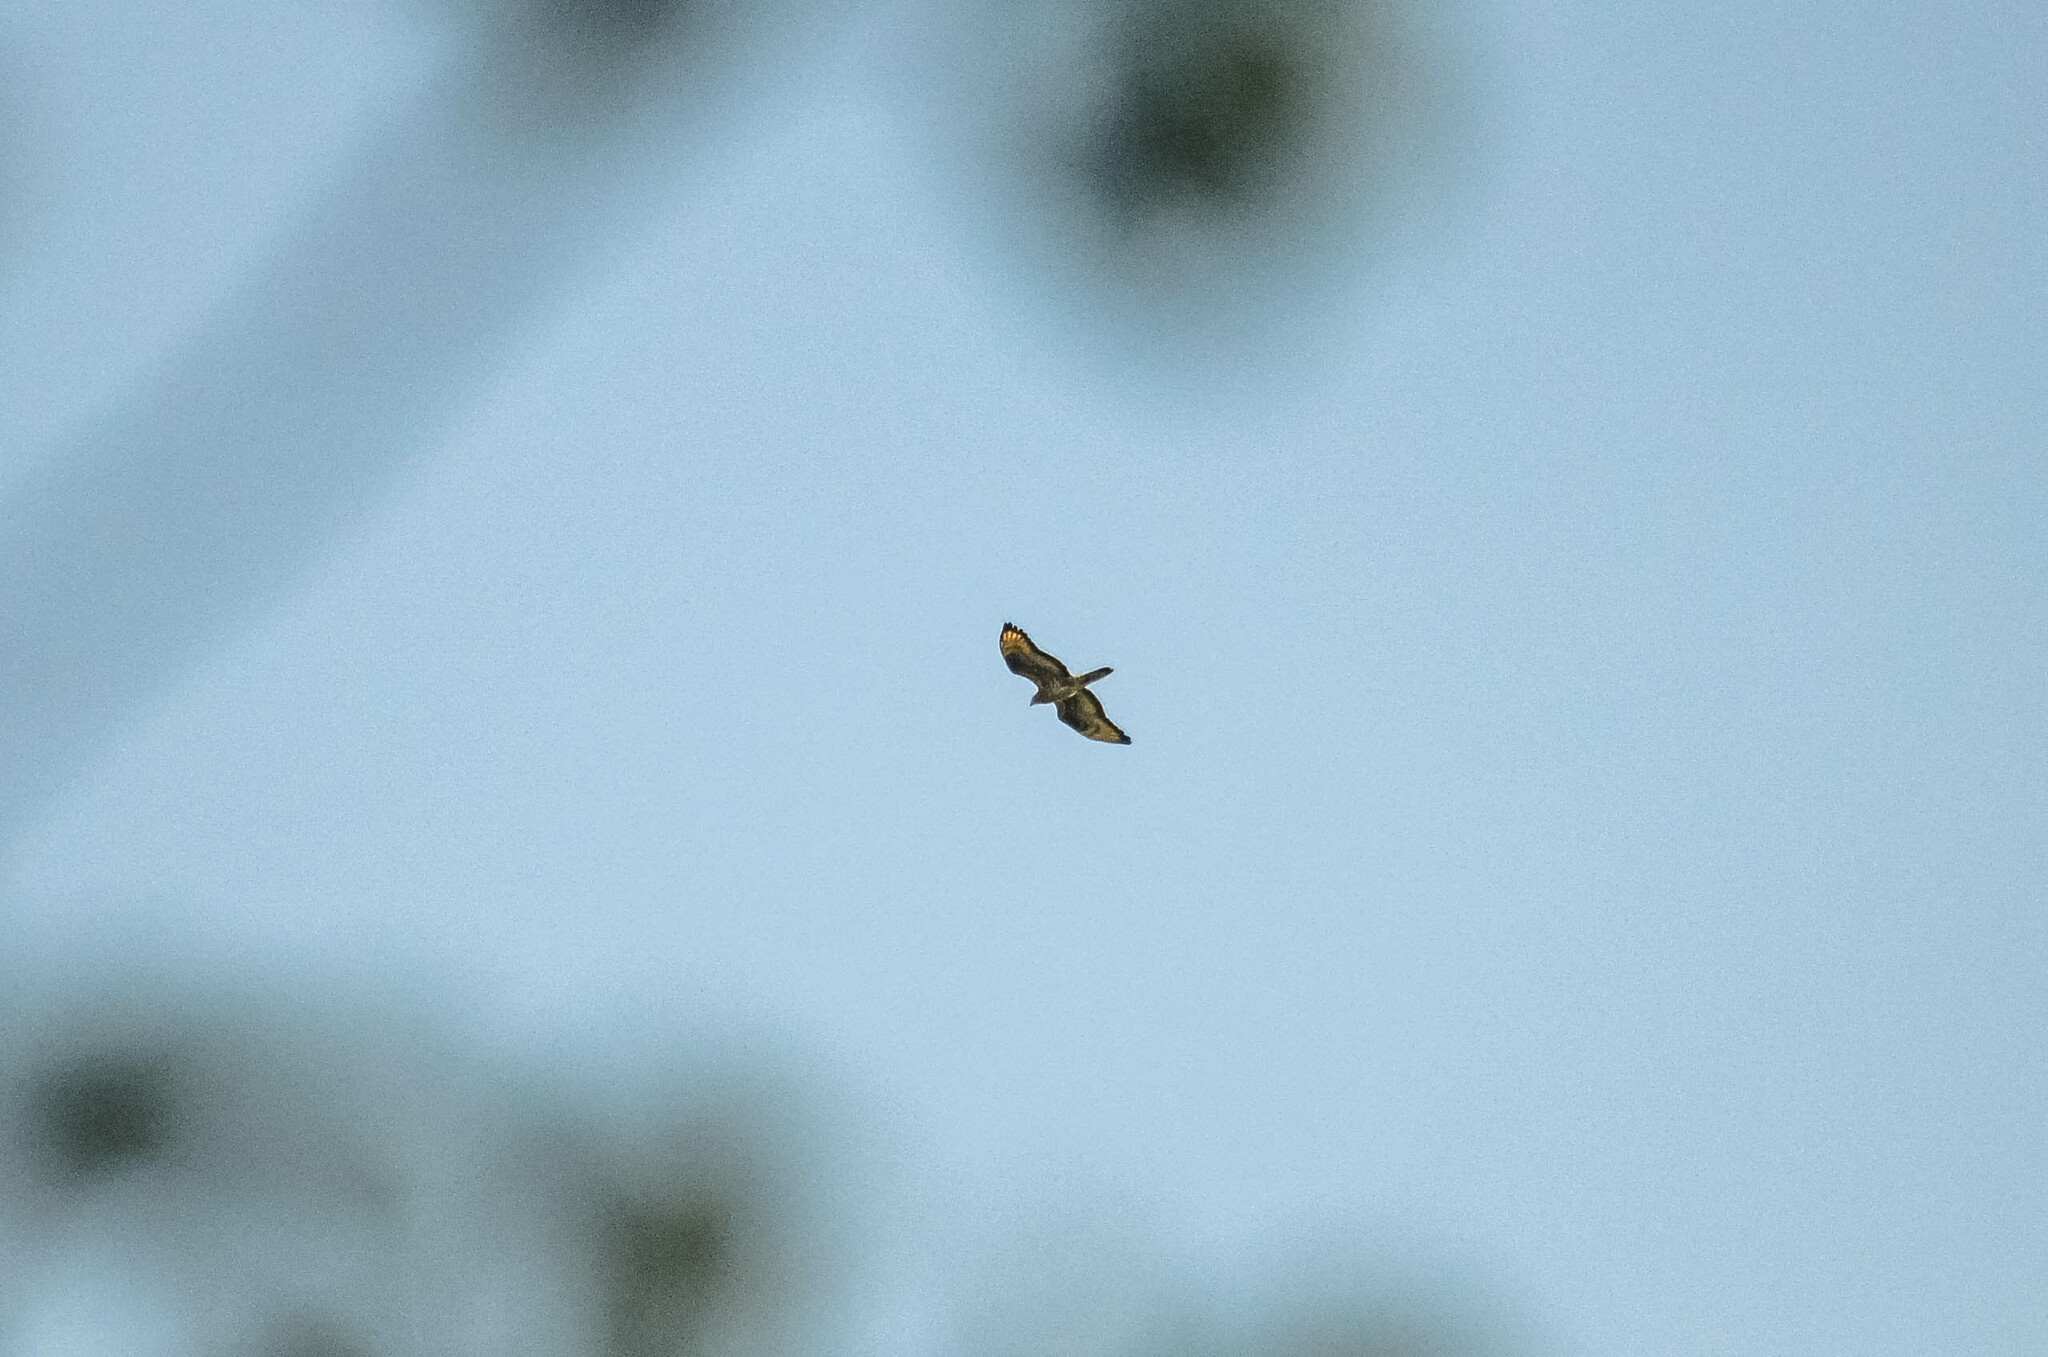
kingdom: Animalia
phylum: Chordata
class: Aves
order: Accipitriformes
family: Accipitridae
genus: Pernis
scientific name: Pernis apivorus
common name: European honey buzzard
